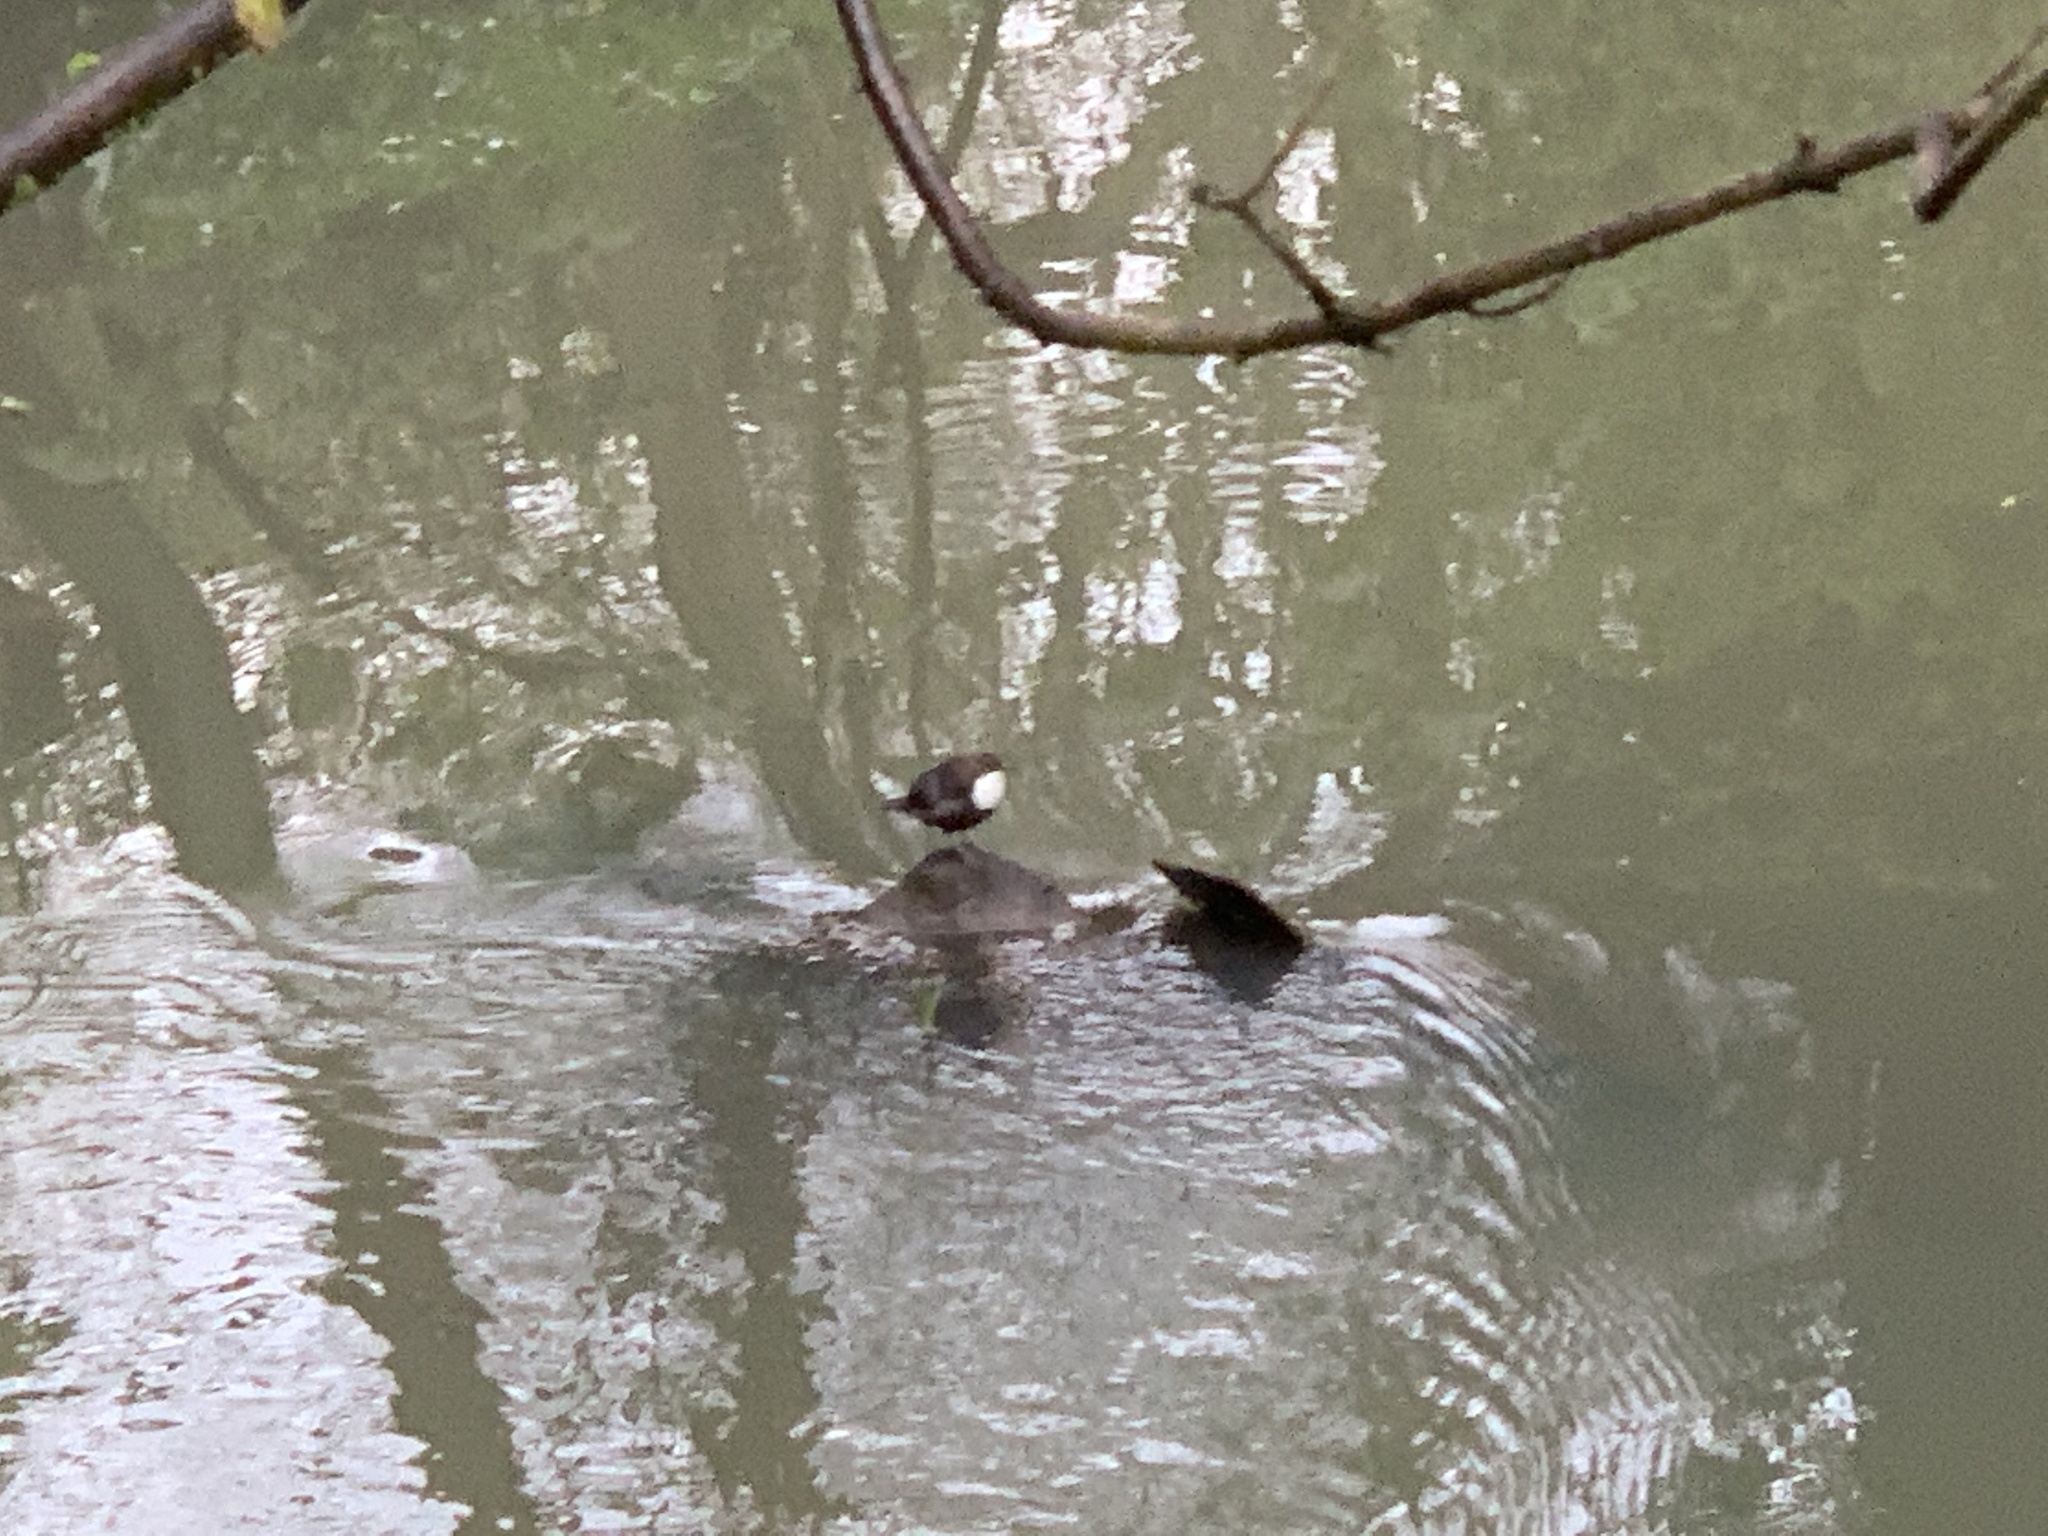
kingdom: Animalia
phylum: Chordata
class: Aves
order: Passeriformes
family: Cinclidae
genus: Cinclus
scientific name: Cinclus cinclus
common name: White-throated dipper
